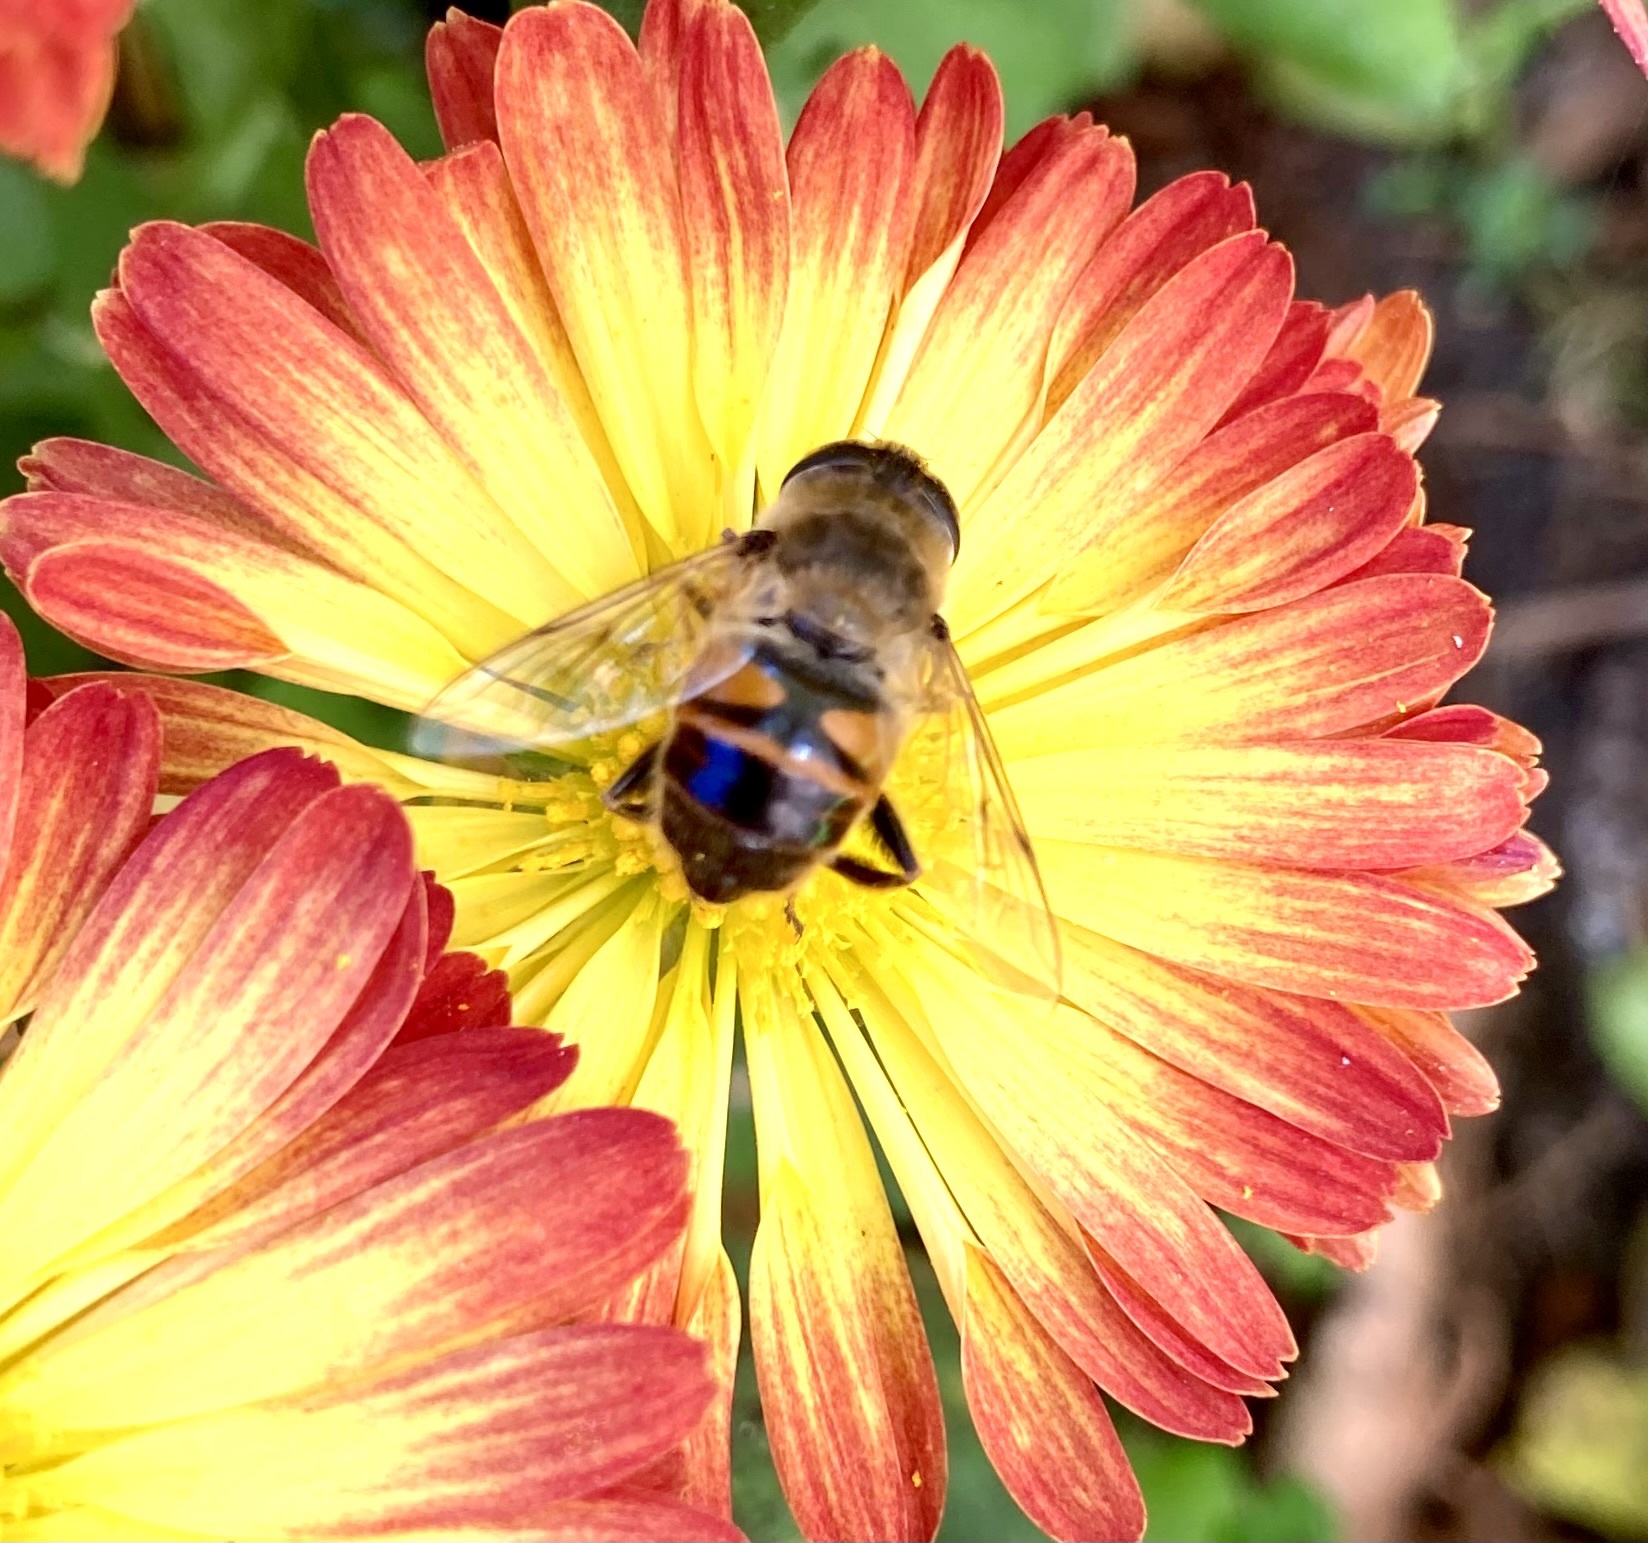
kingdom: Animalia
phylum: Arthropoda
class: Insecta
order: Diptera
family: Syrphidae
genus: Eristalis
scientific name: Eristalis tenax
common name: Drone fly
